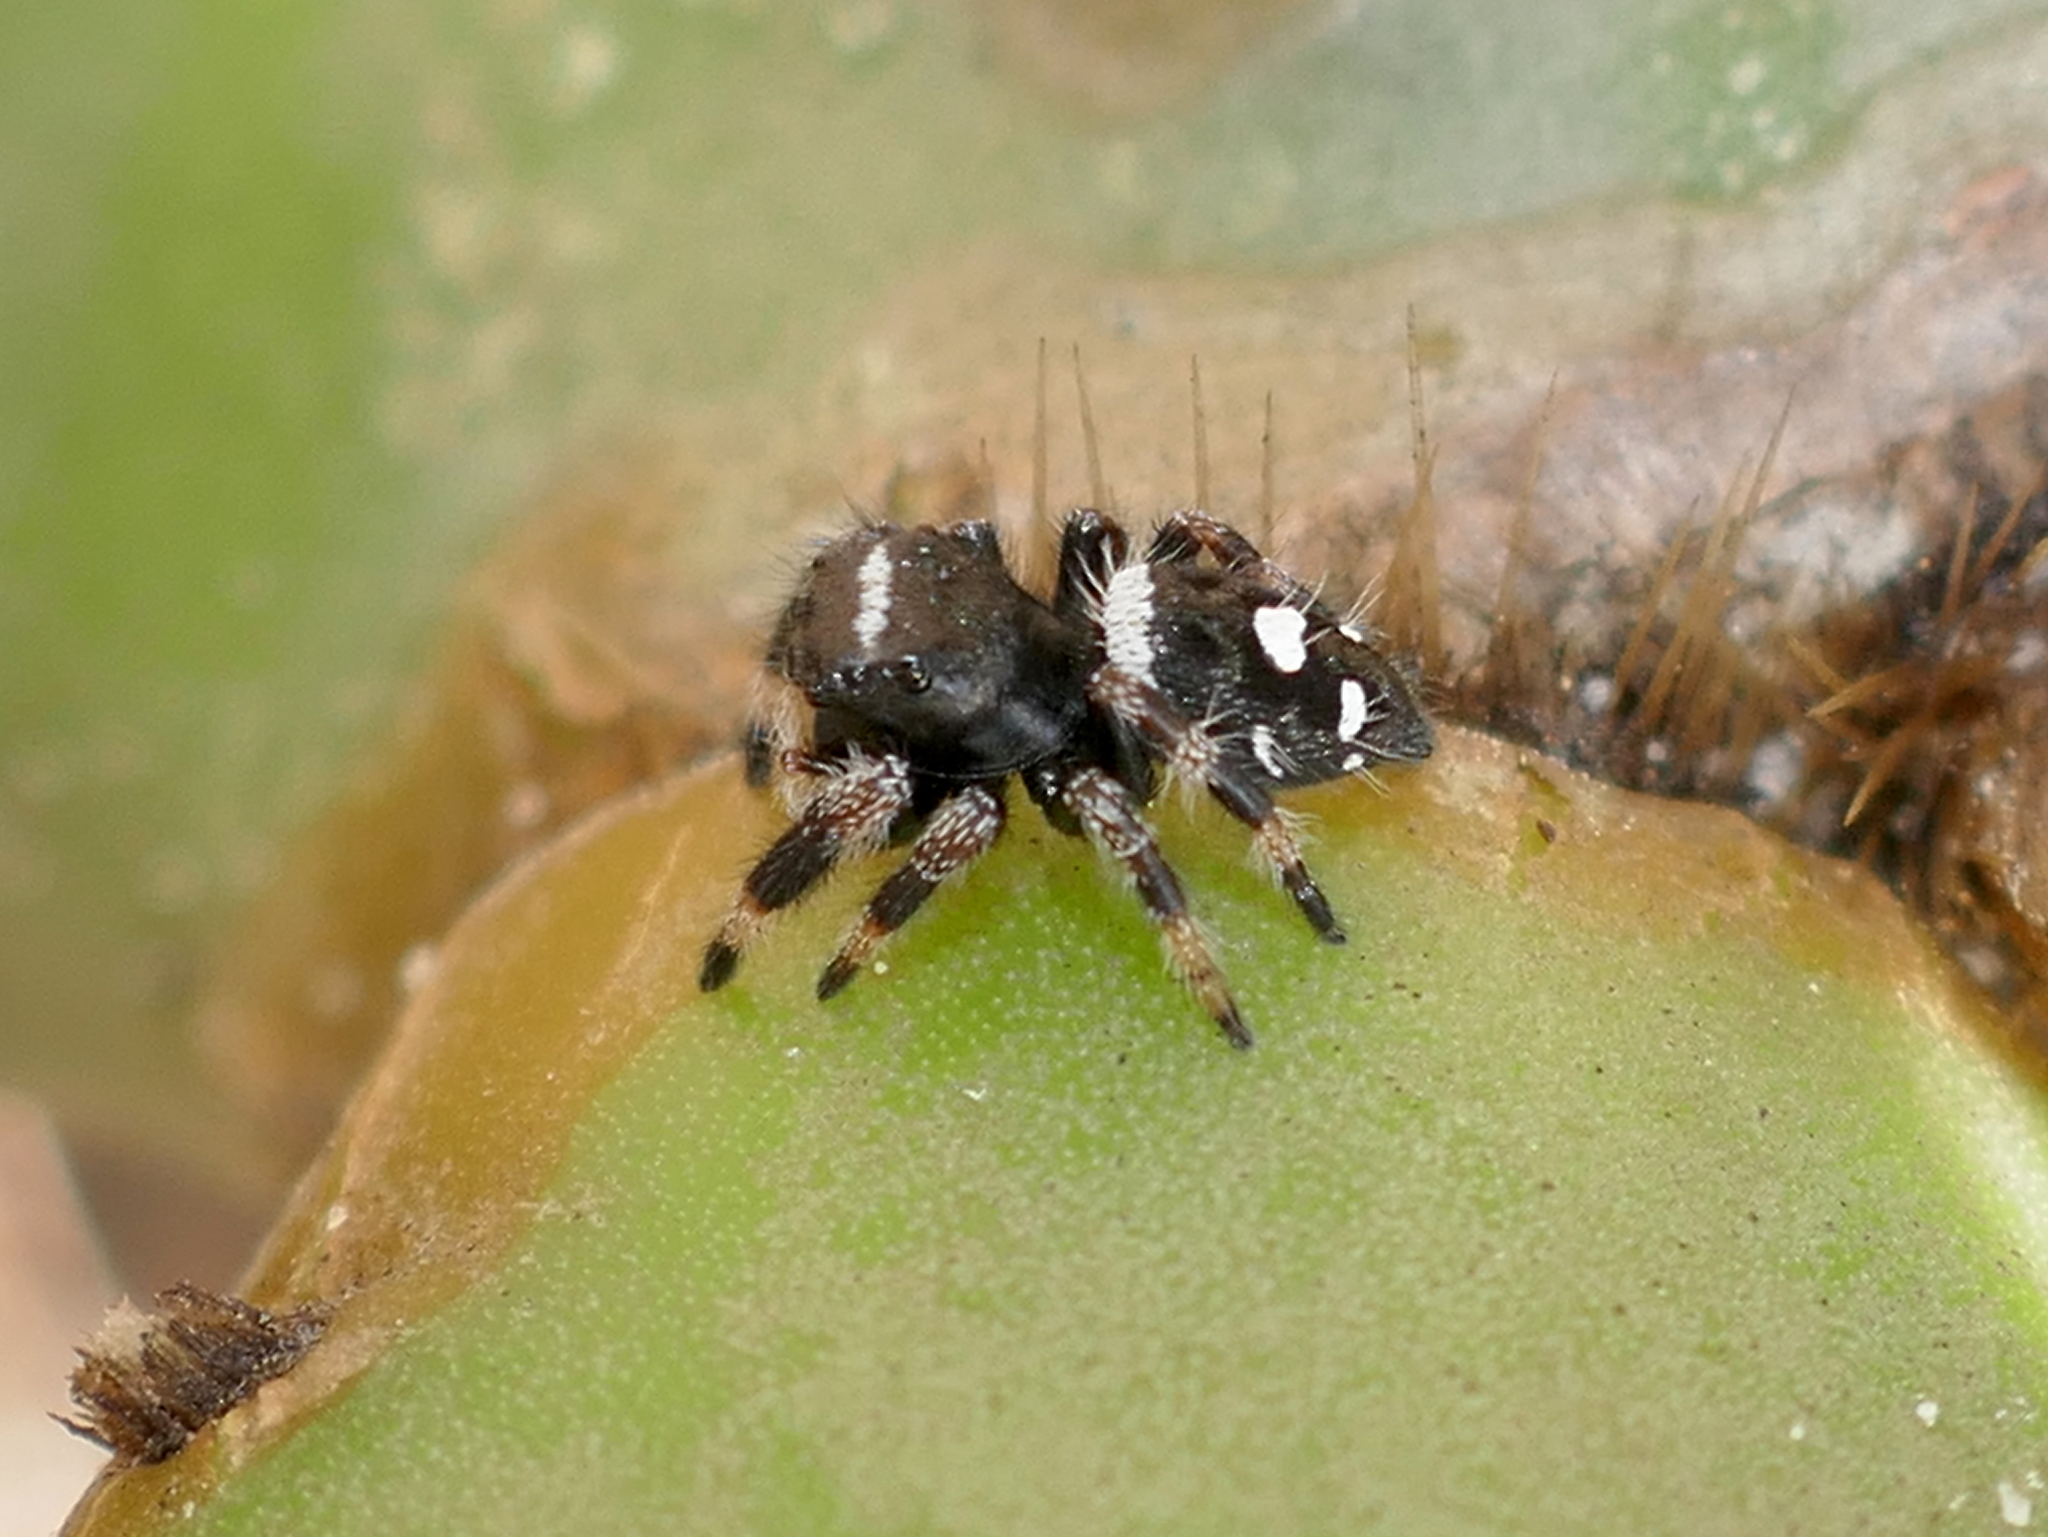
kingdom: Animalia
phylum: Arthropoda
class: Arachnida
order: Araneae
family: Salticidae
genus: Phidippus
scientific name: Phidippus regius
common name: Regal jumper
